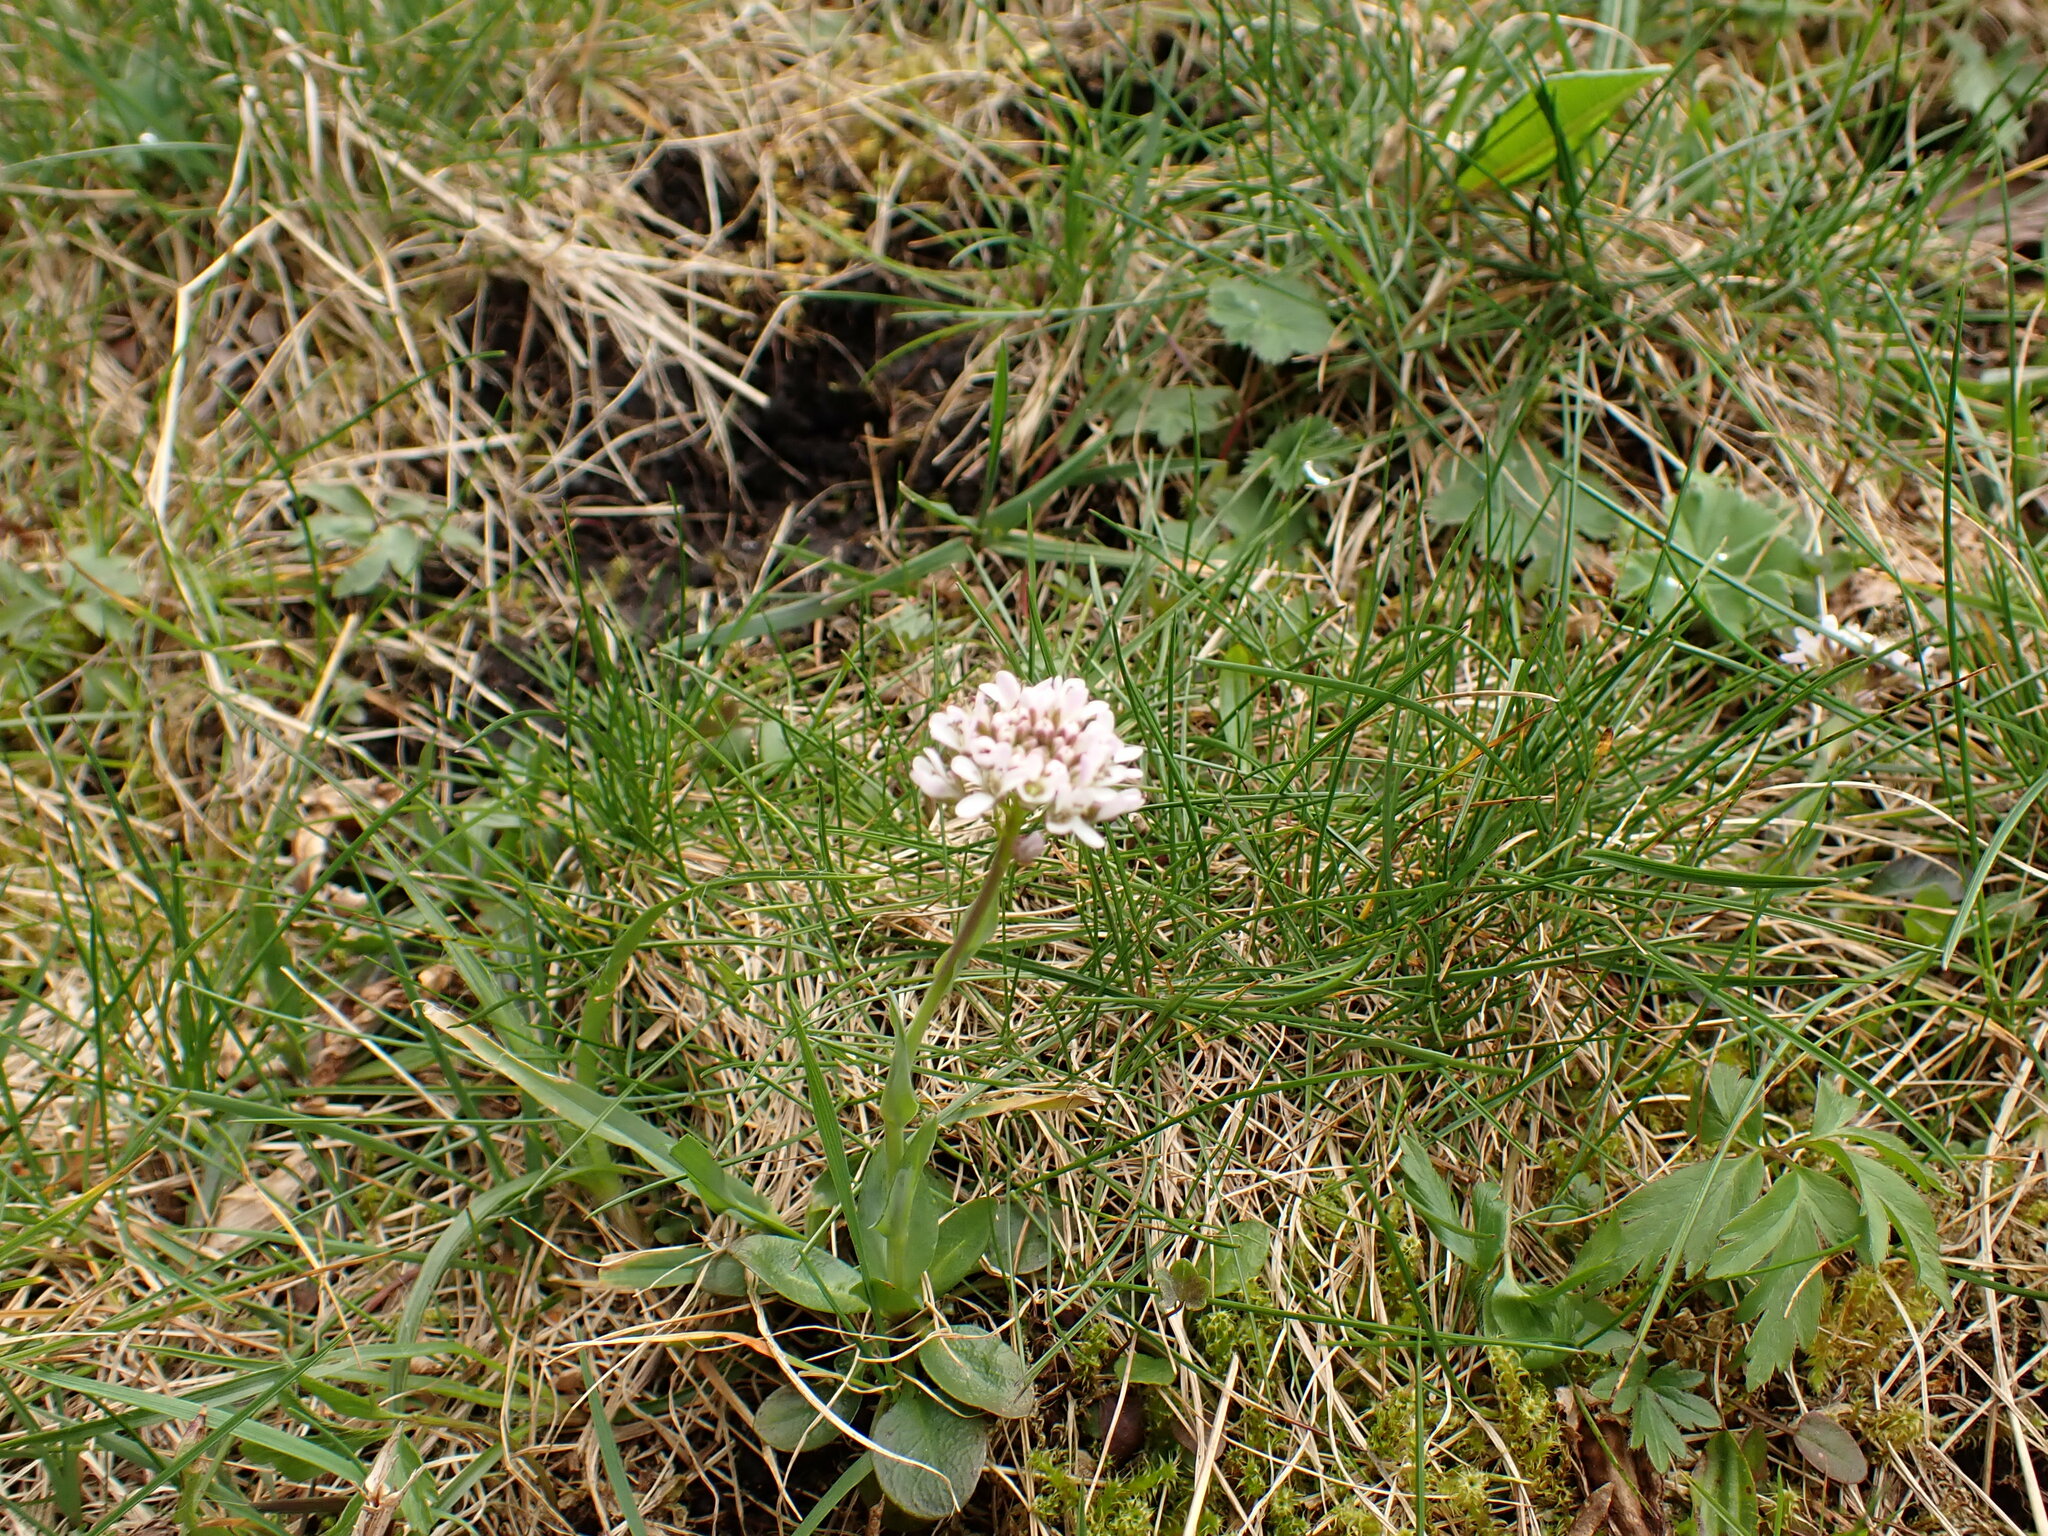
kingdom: Plantae
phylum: Tracheophyta
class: Magnoliopsida
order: Brassicales
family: Brassicaceae
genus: Noccaea
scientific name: Noccaea caerulescens
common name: Alpine pennycress
